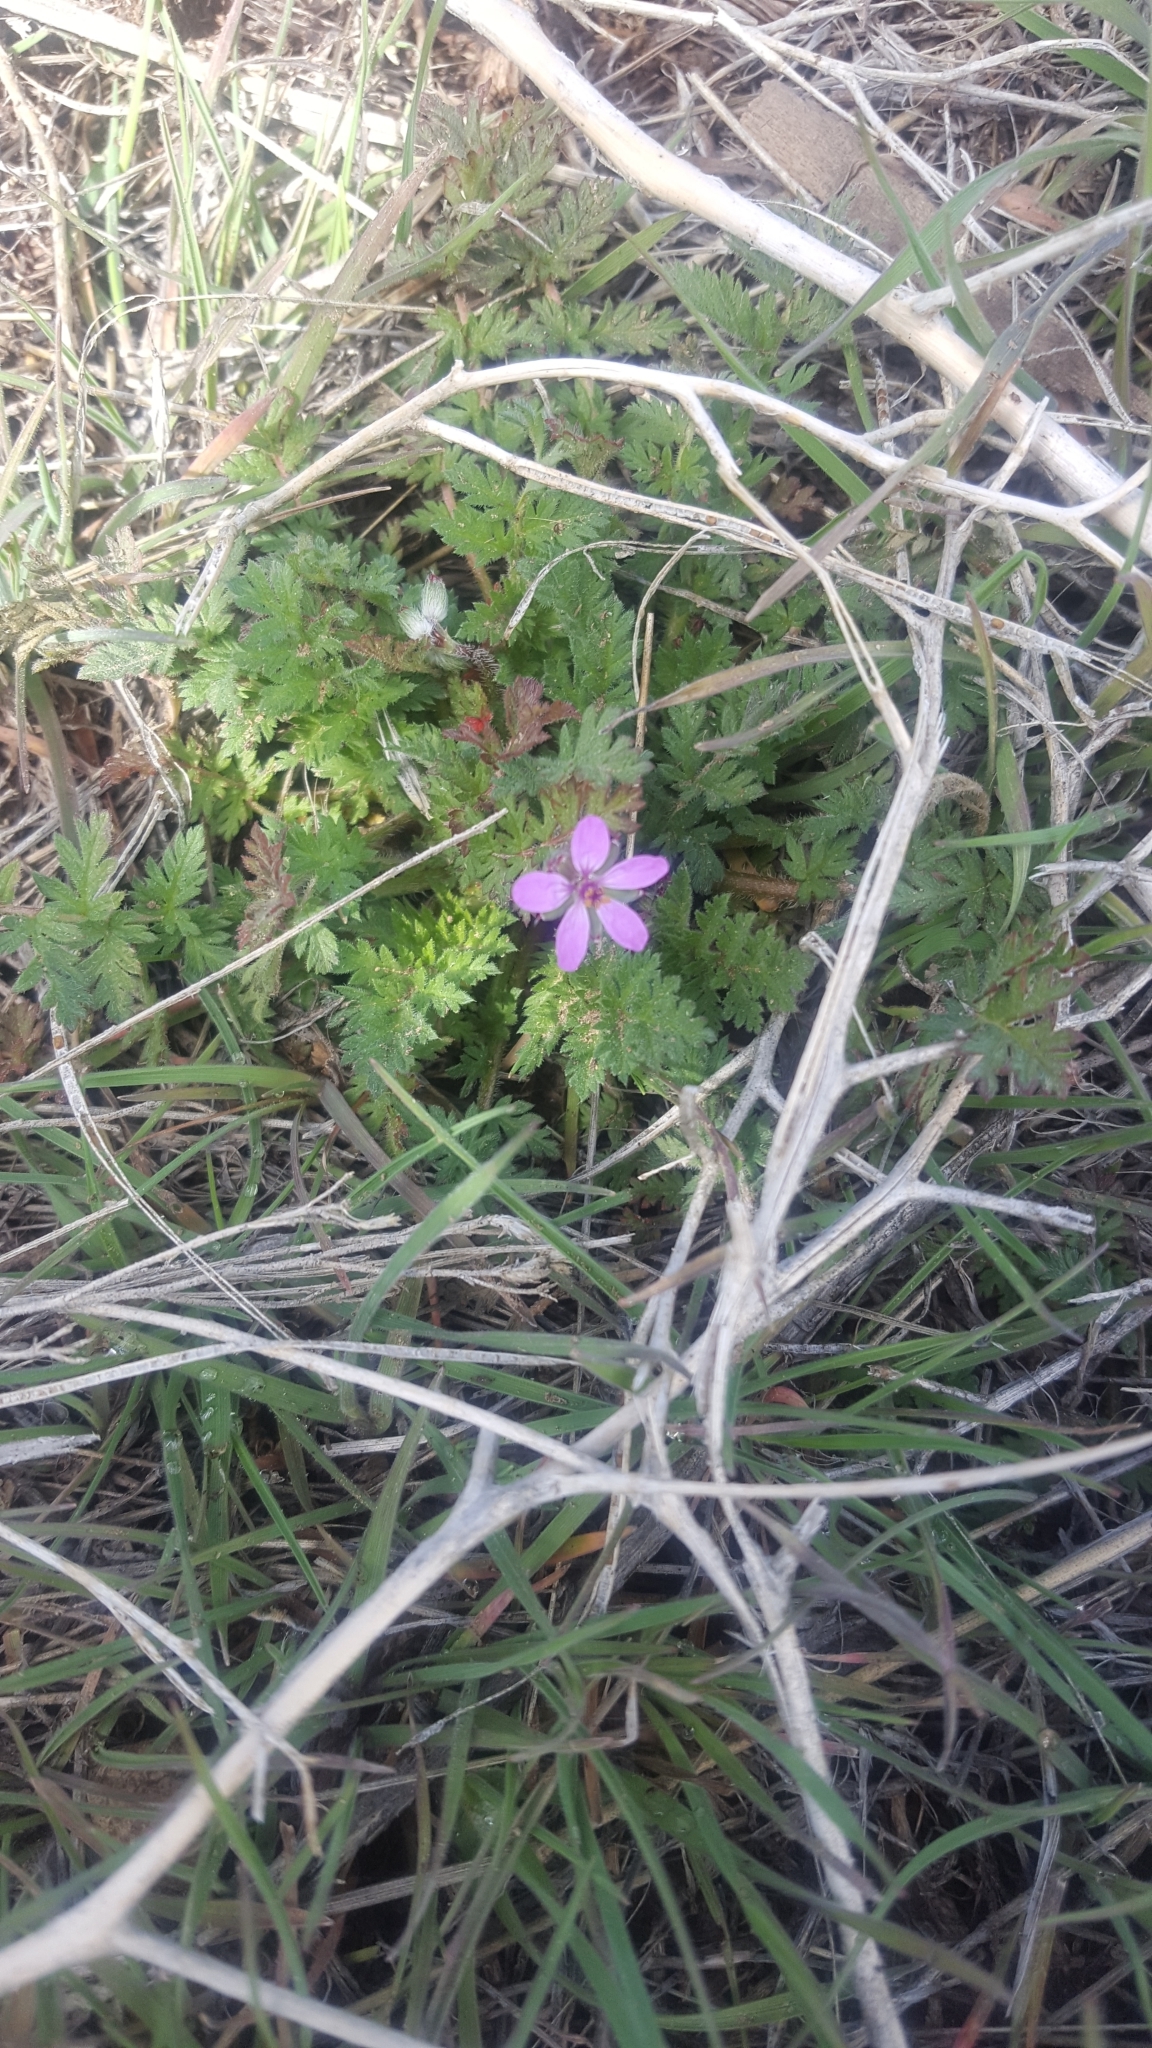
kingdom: Plantae
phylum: Tracheophyta
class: Magnoliopsida
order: Geraniales
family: Geraniaceae
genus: Erodium
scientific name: Erodium cicutarium
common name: Common stork's-bill
